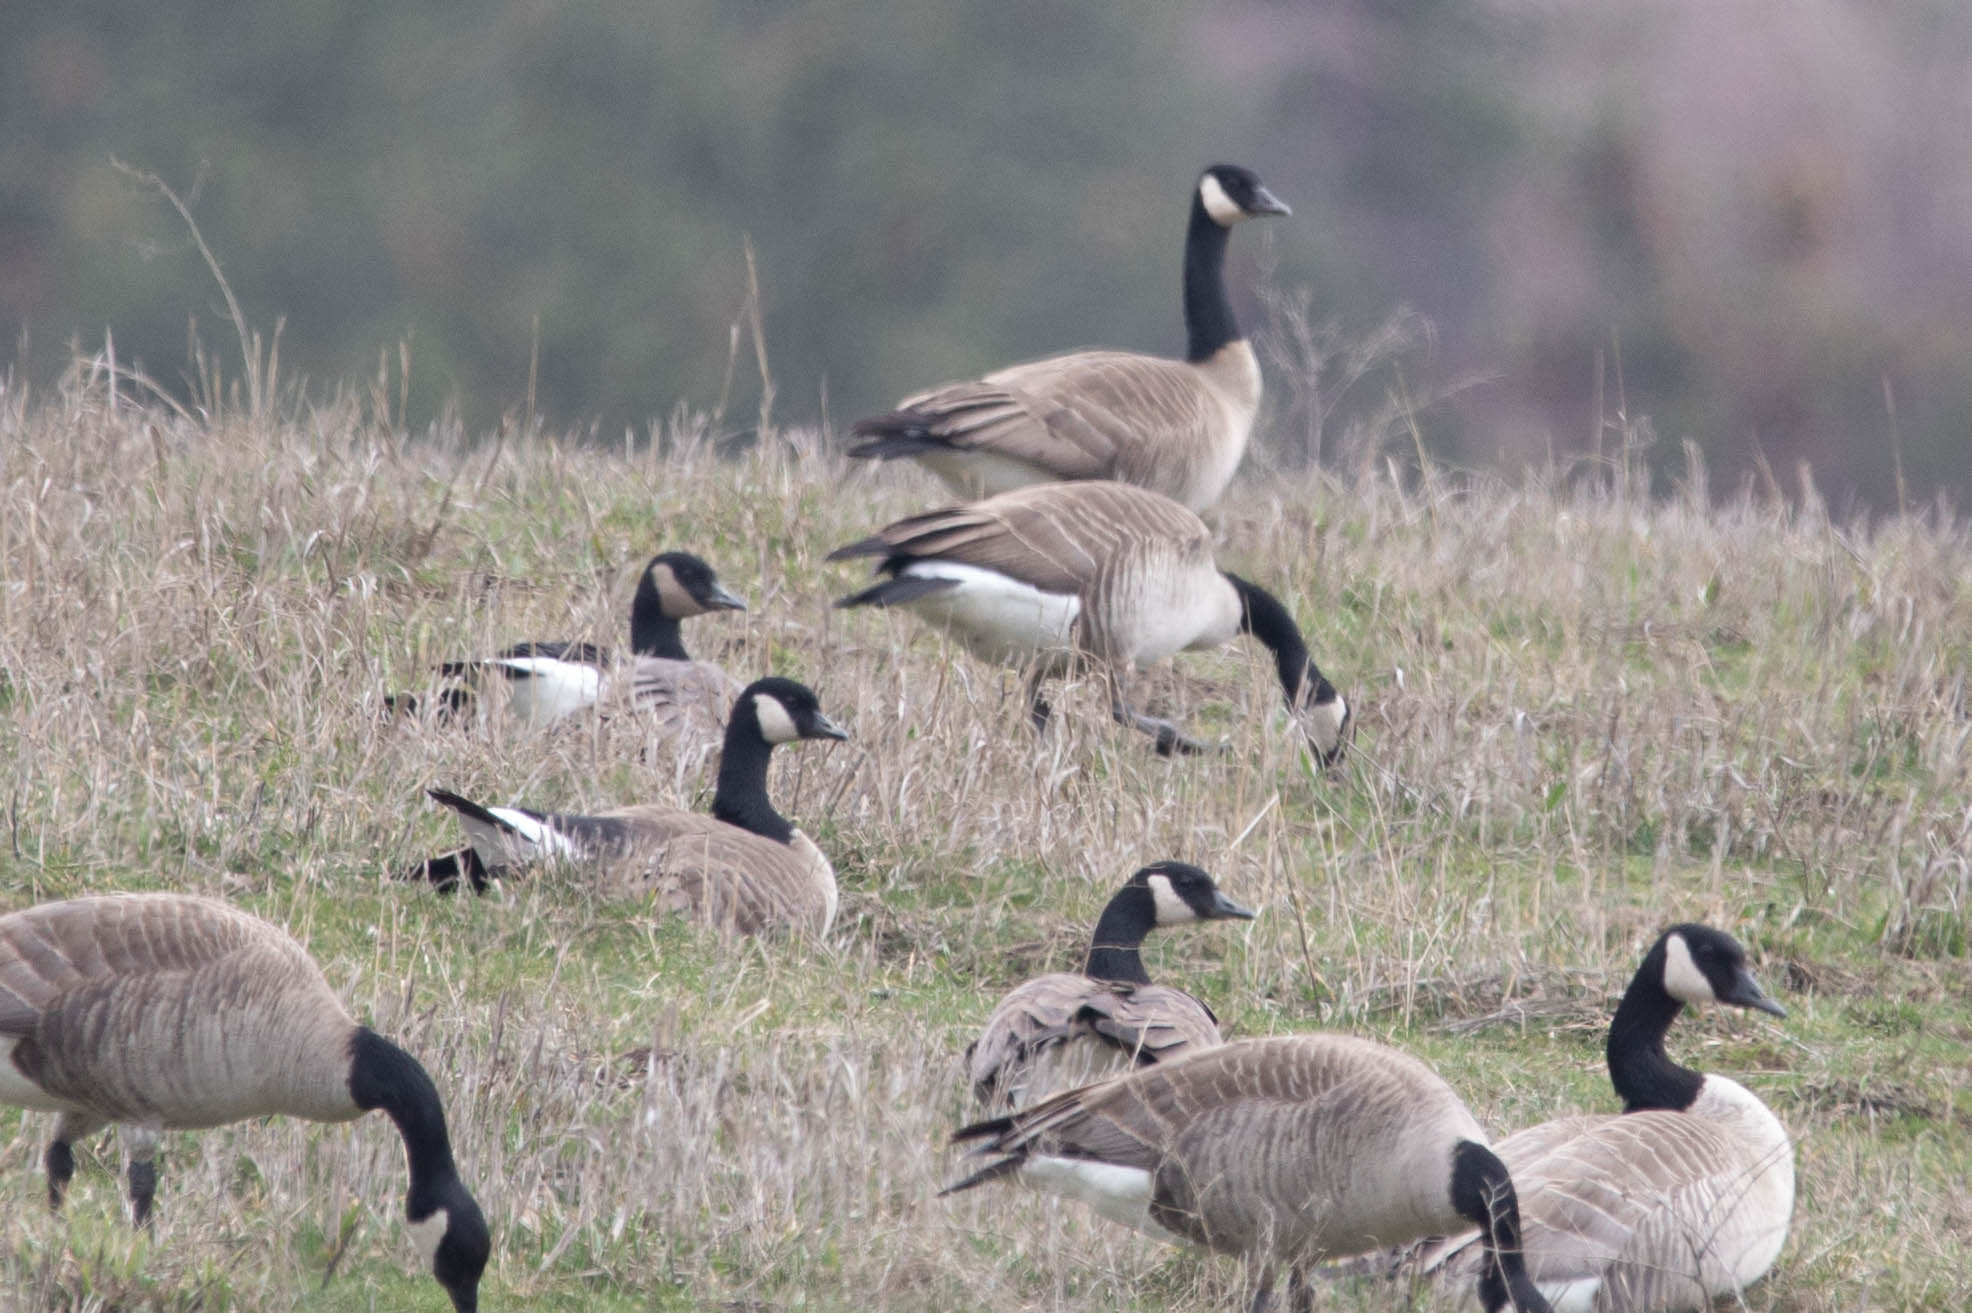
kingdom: Animalia
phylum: Chordata
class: Aves
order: Anseriformes
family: Anatidae
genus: Branta
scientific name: Branta hutchinsii
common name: Cackling goose
